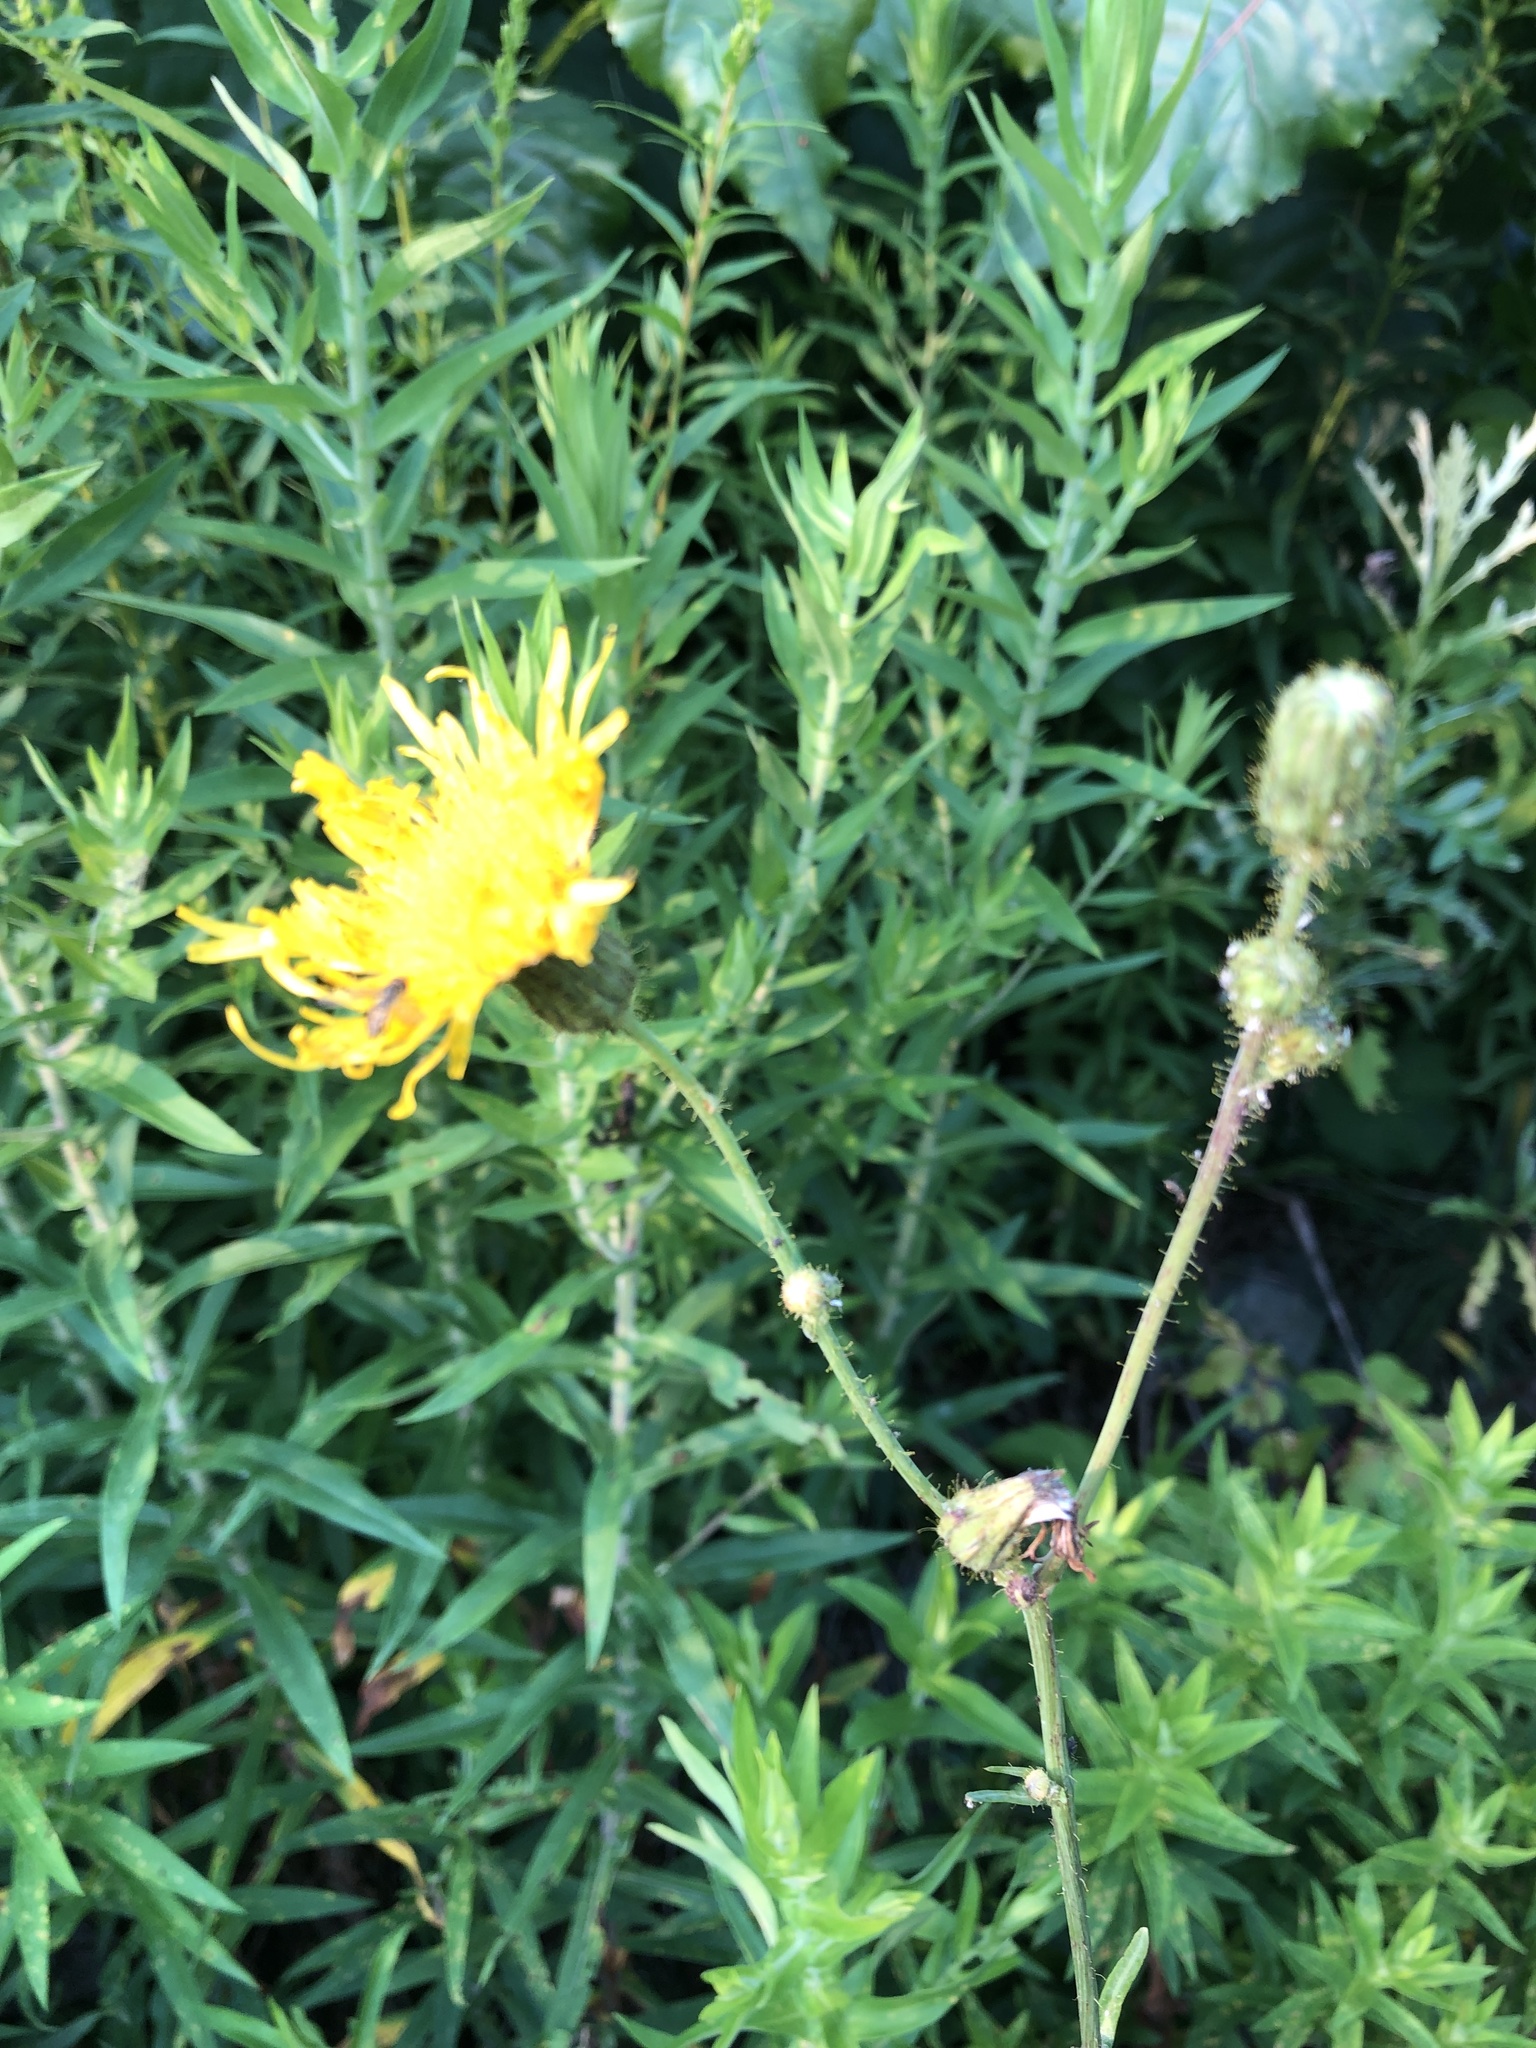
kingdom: Plantae
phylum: Tracheophyta
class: Magnoliopsida
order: Asterales
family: Asteraceae
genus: Sonchus
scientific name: Sonchus arvensis
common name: Perennial sow-thistle
